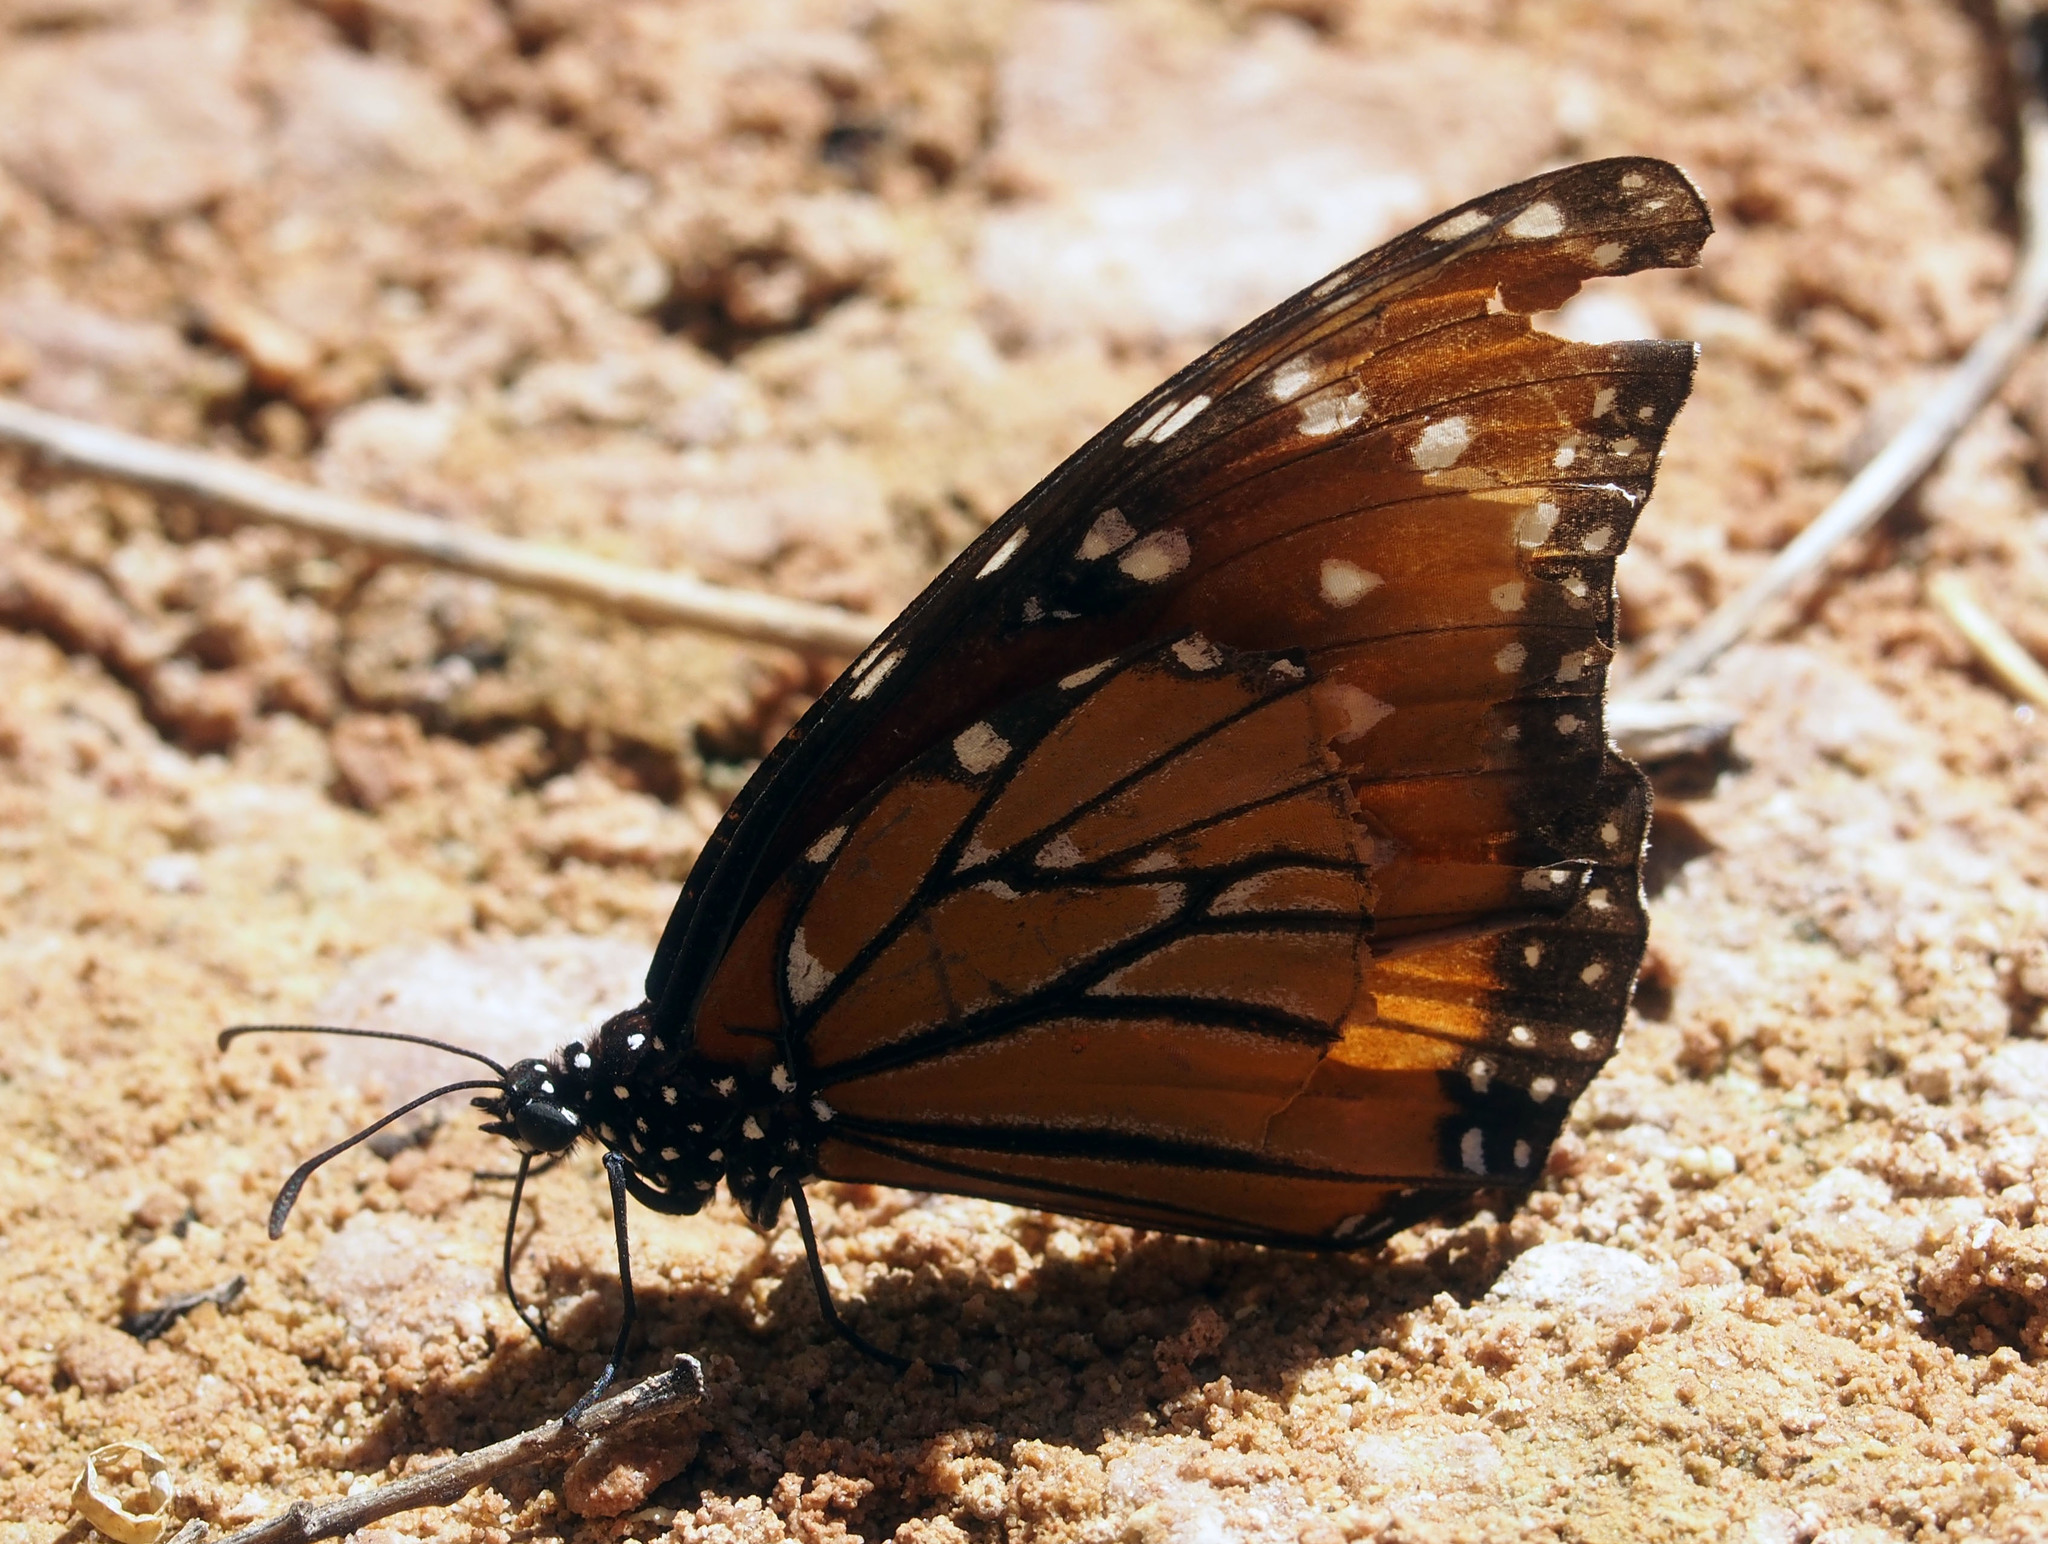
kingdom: Animalia
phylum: Arthropoda
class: Insecta
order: Lepidoptera
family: Nymphalidae
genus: Danaus
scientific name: Danaus gilippus
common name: Queen
